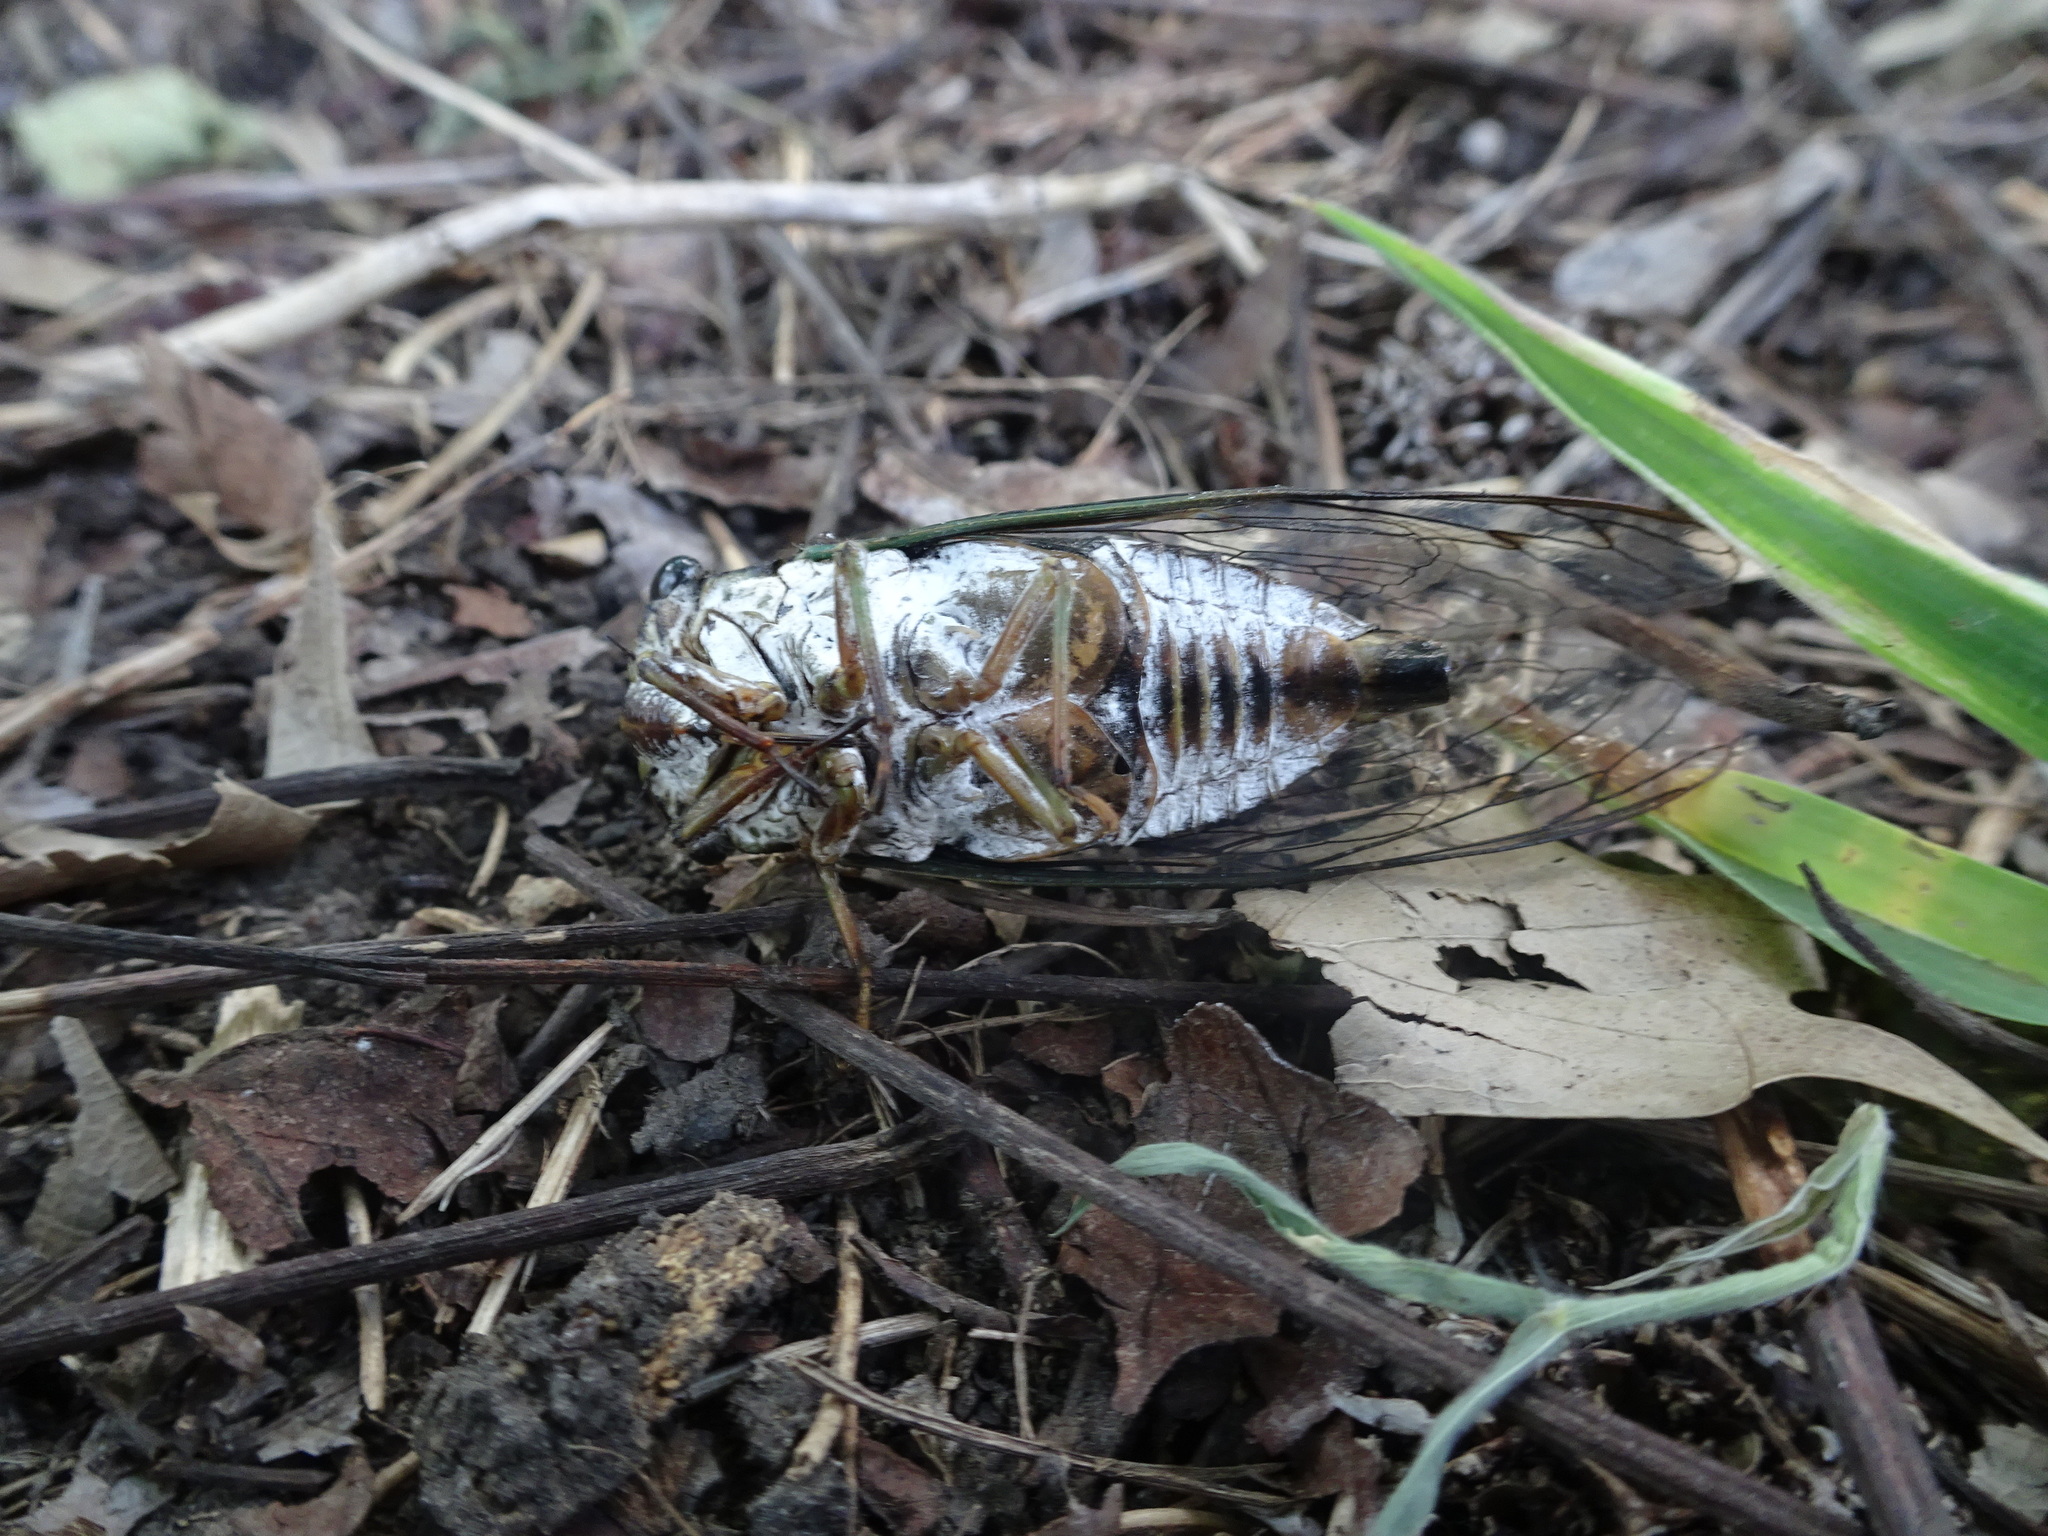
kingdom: Animalia
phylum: Arthropoda
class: Insecta
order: Hemiptera
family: Cicadidae
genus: Neotibicen
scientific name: Neotibicen pruinosus
